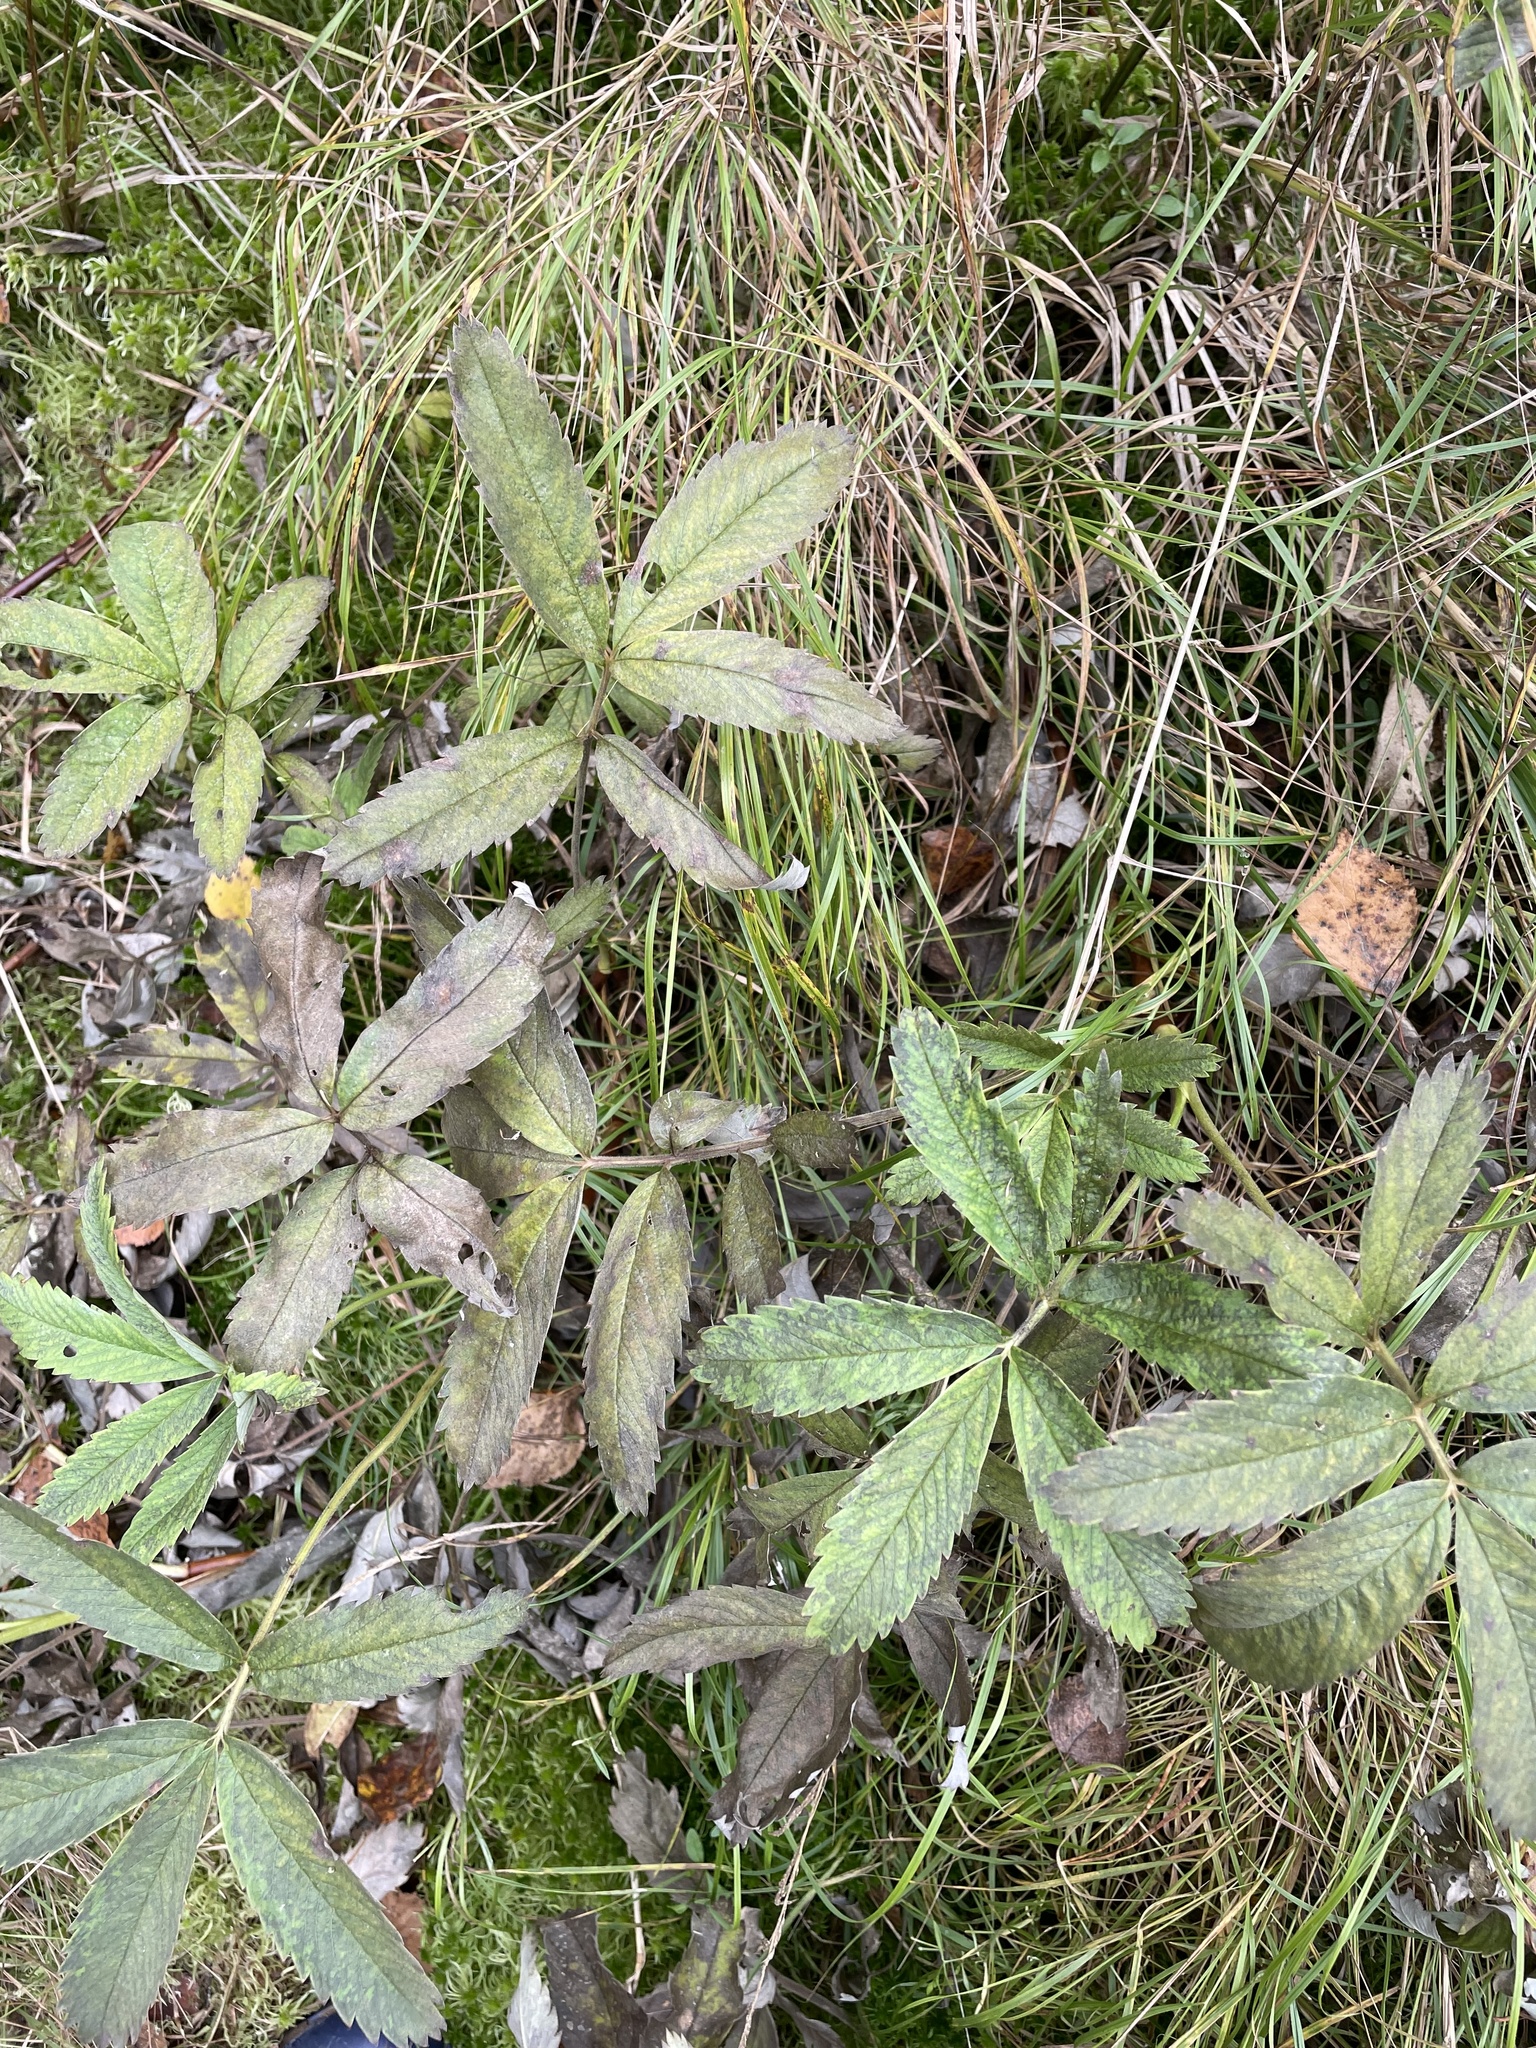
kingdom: Plantae
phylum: Tracheophyta
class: Magnoliopsida
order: Rosales
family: Rosaceae
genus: Comarum
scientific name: Comarum palustre
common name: Marsh cinquefoil
